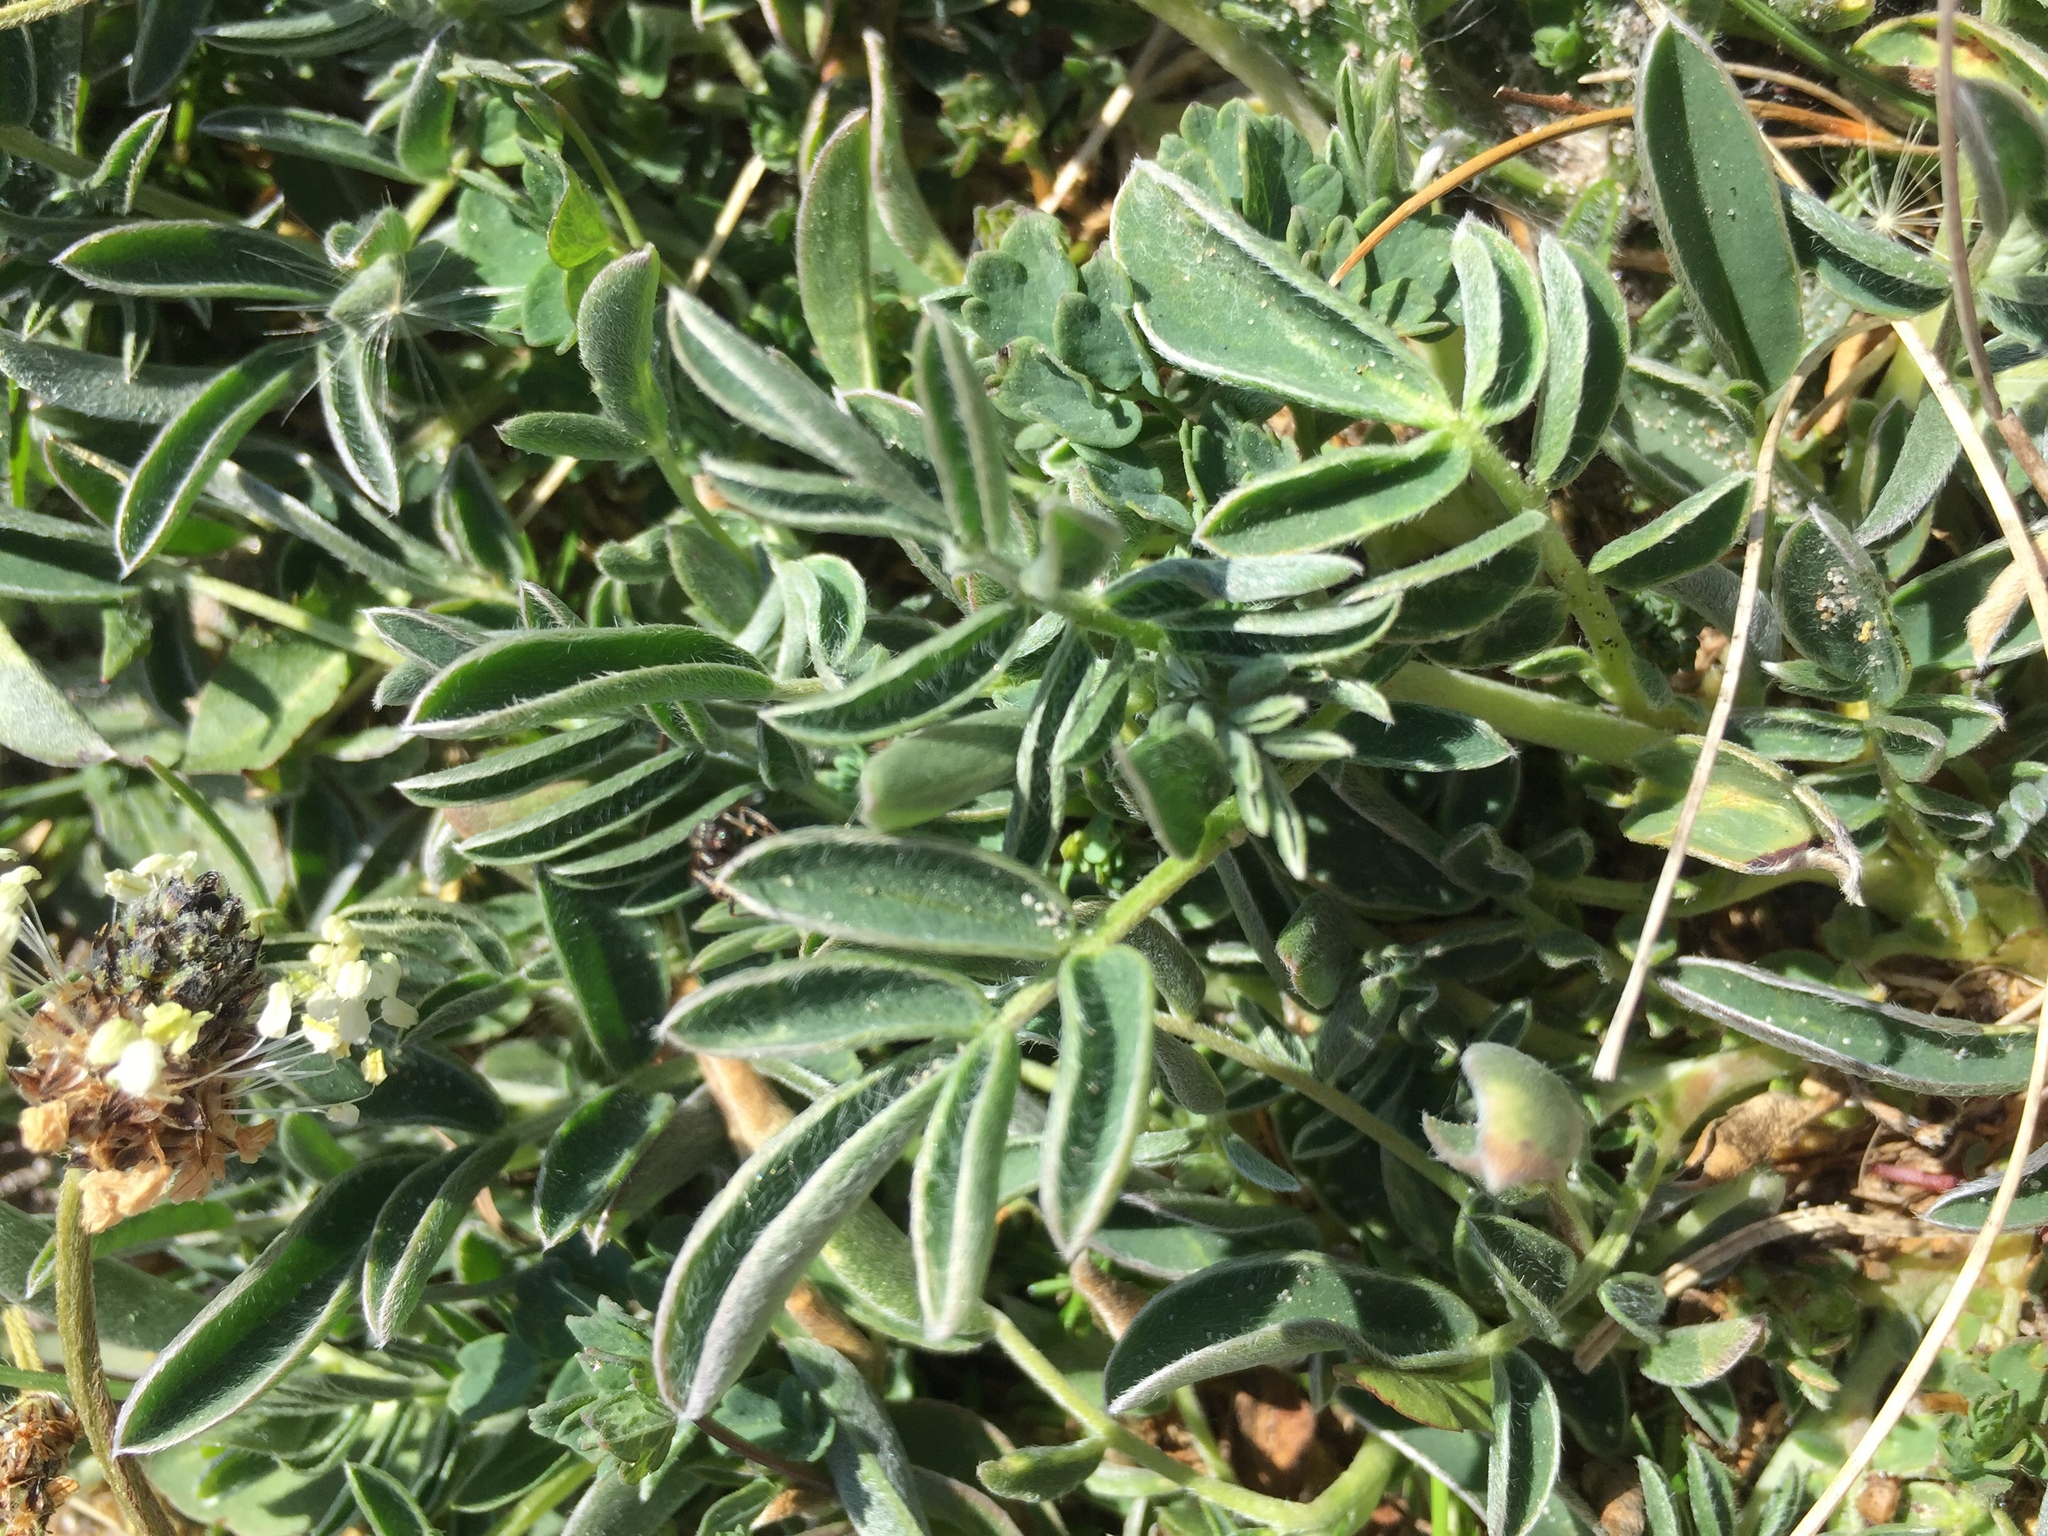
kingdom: Plantae
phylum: Tracheophyta
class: Magnoliopsida
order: Fabales
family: Fabaceae
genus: Anthyllis
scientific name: Anthyllis vulneraria
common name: Kidney vetch
